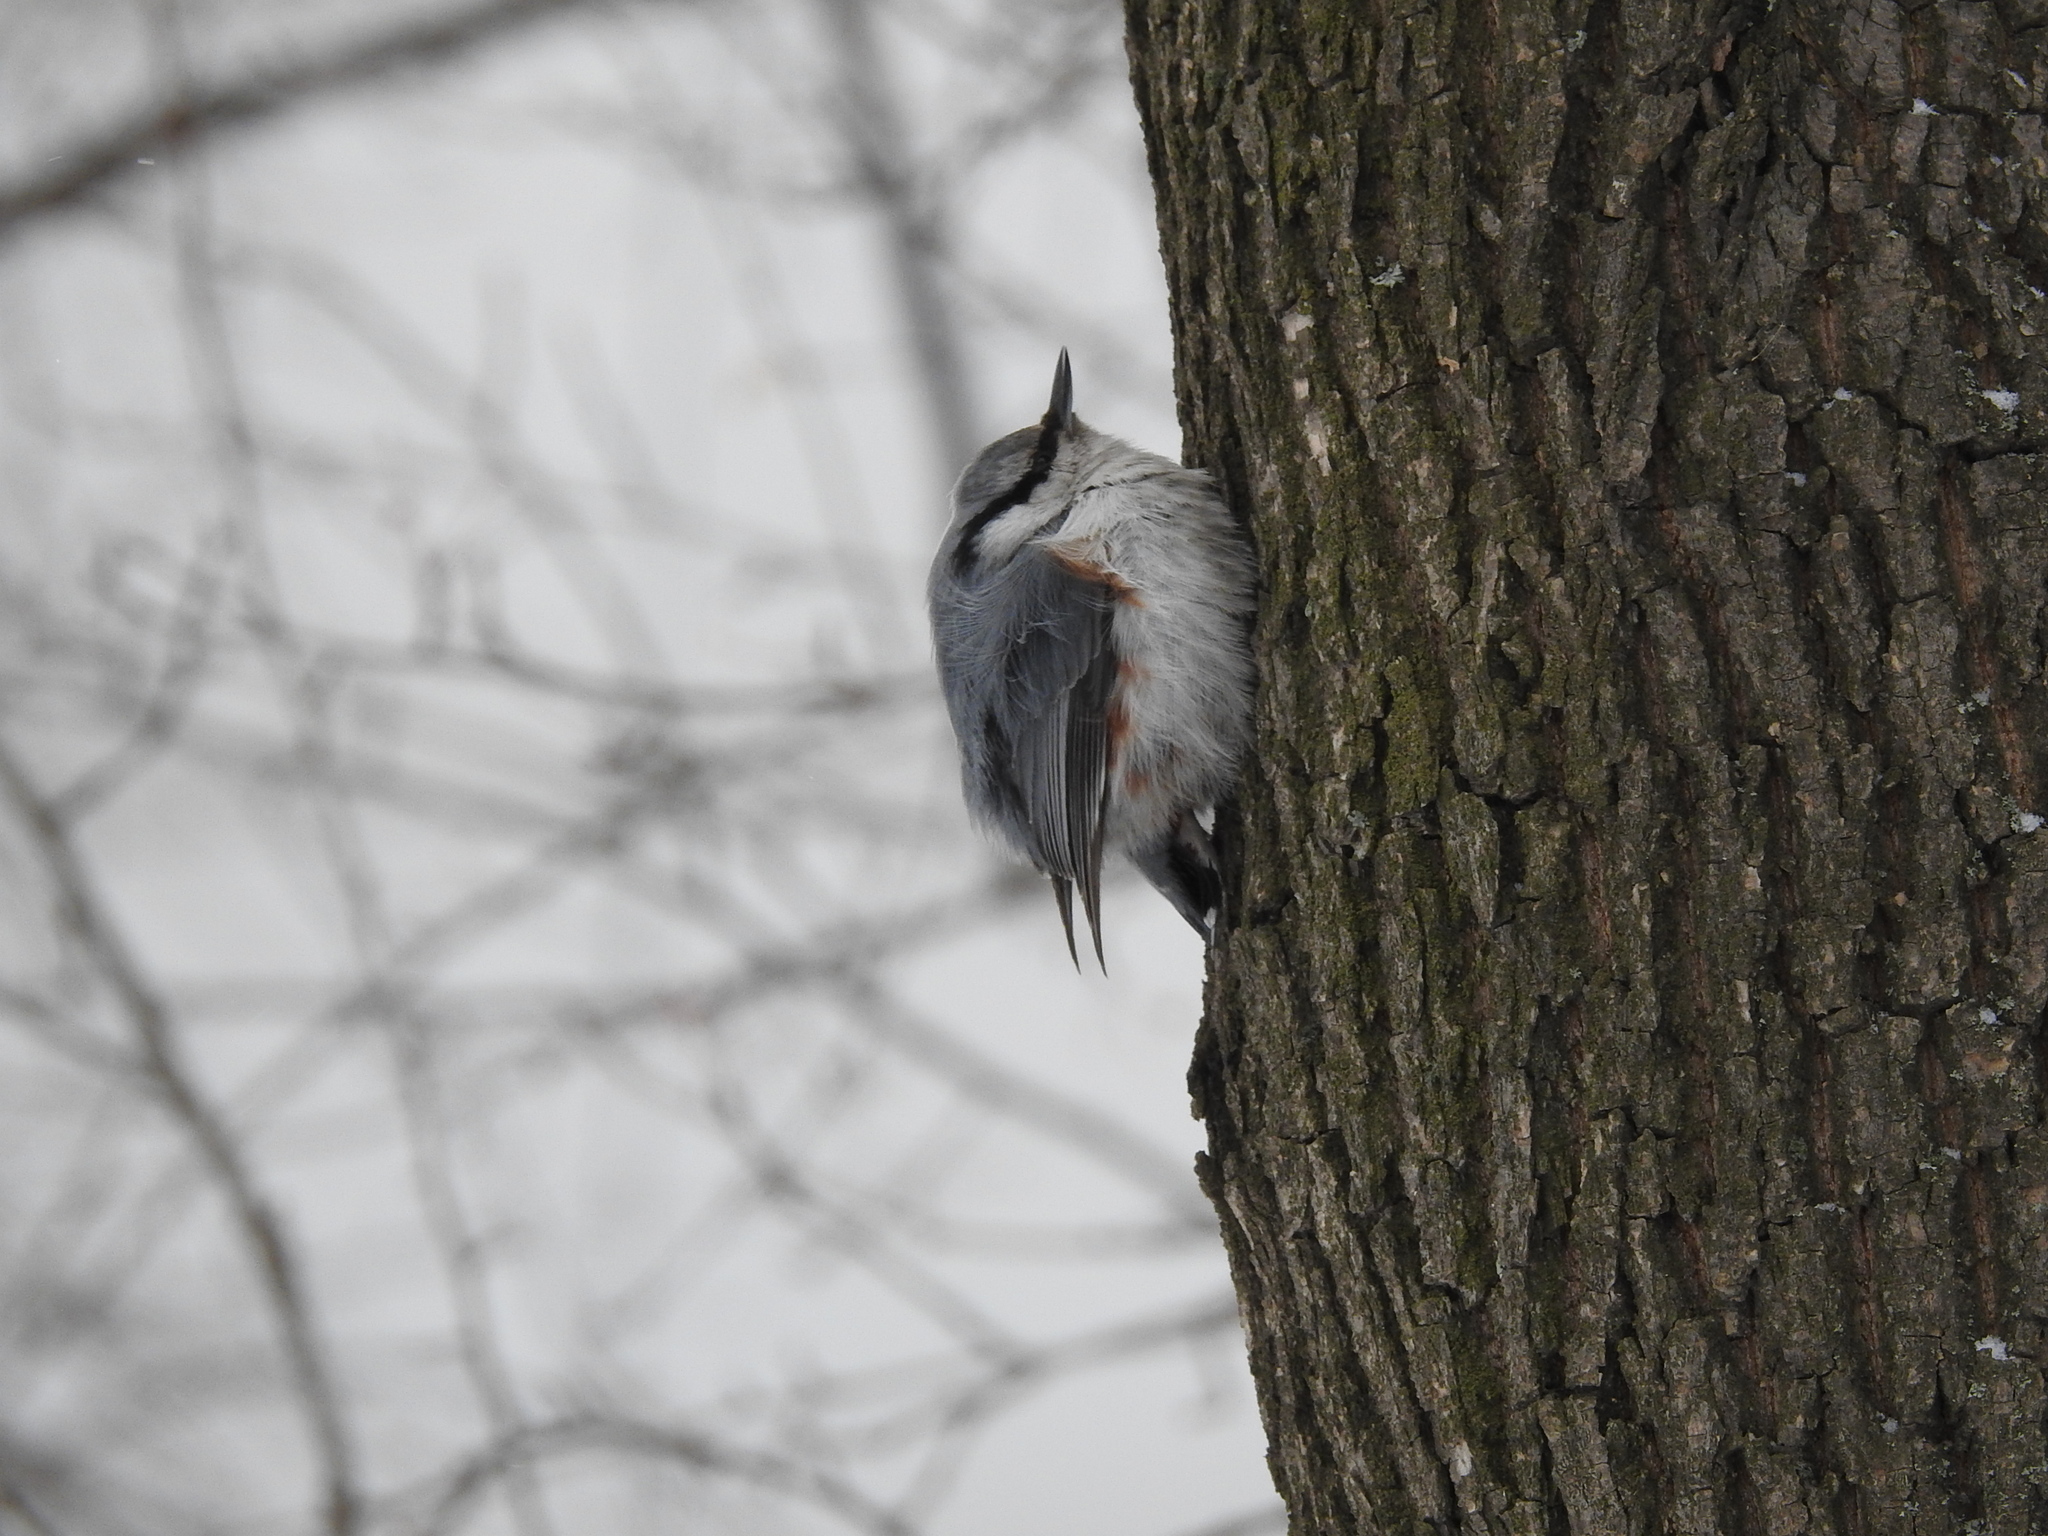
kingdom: Animalia
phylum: Chordata
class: Aves
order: Passeriformes
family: Sittidae
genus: Sitta
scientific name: Sitta europaea
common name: Eurasian nuthatch
